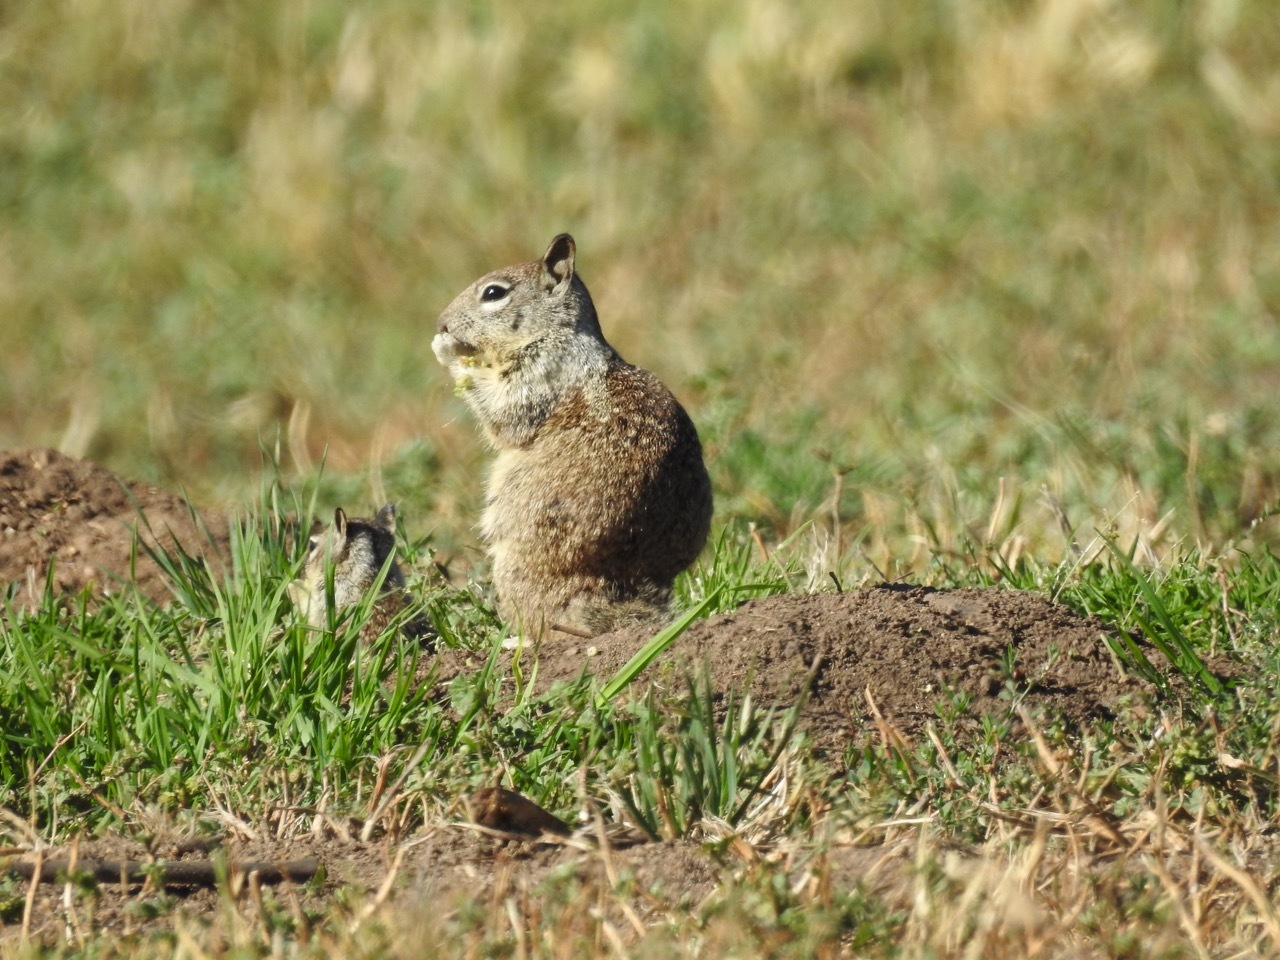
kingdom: Animalia
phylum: Chordata
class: Mammalia
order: Rodentia
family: Sciuridae
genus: Otospermophilus
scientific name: Otospermophilus beecheyi
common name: California ground squirrel
